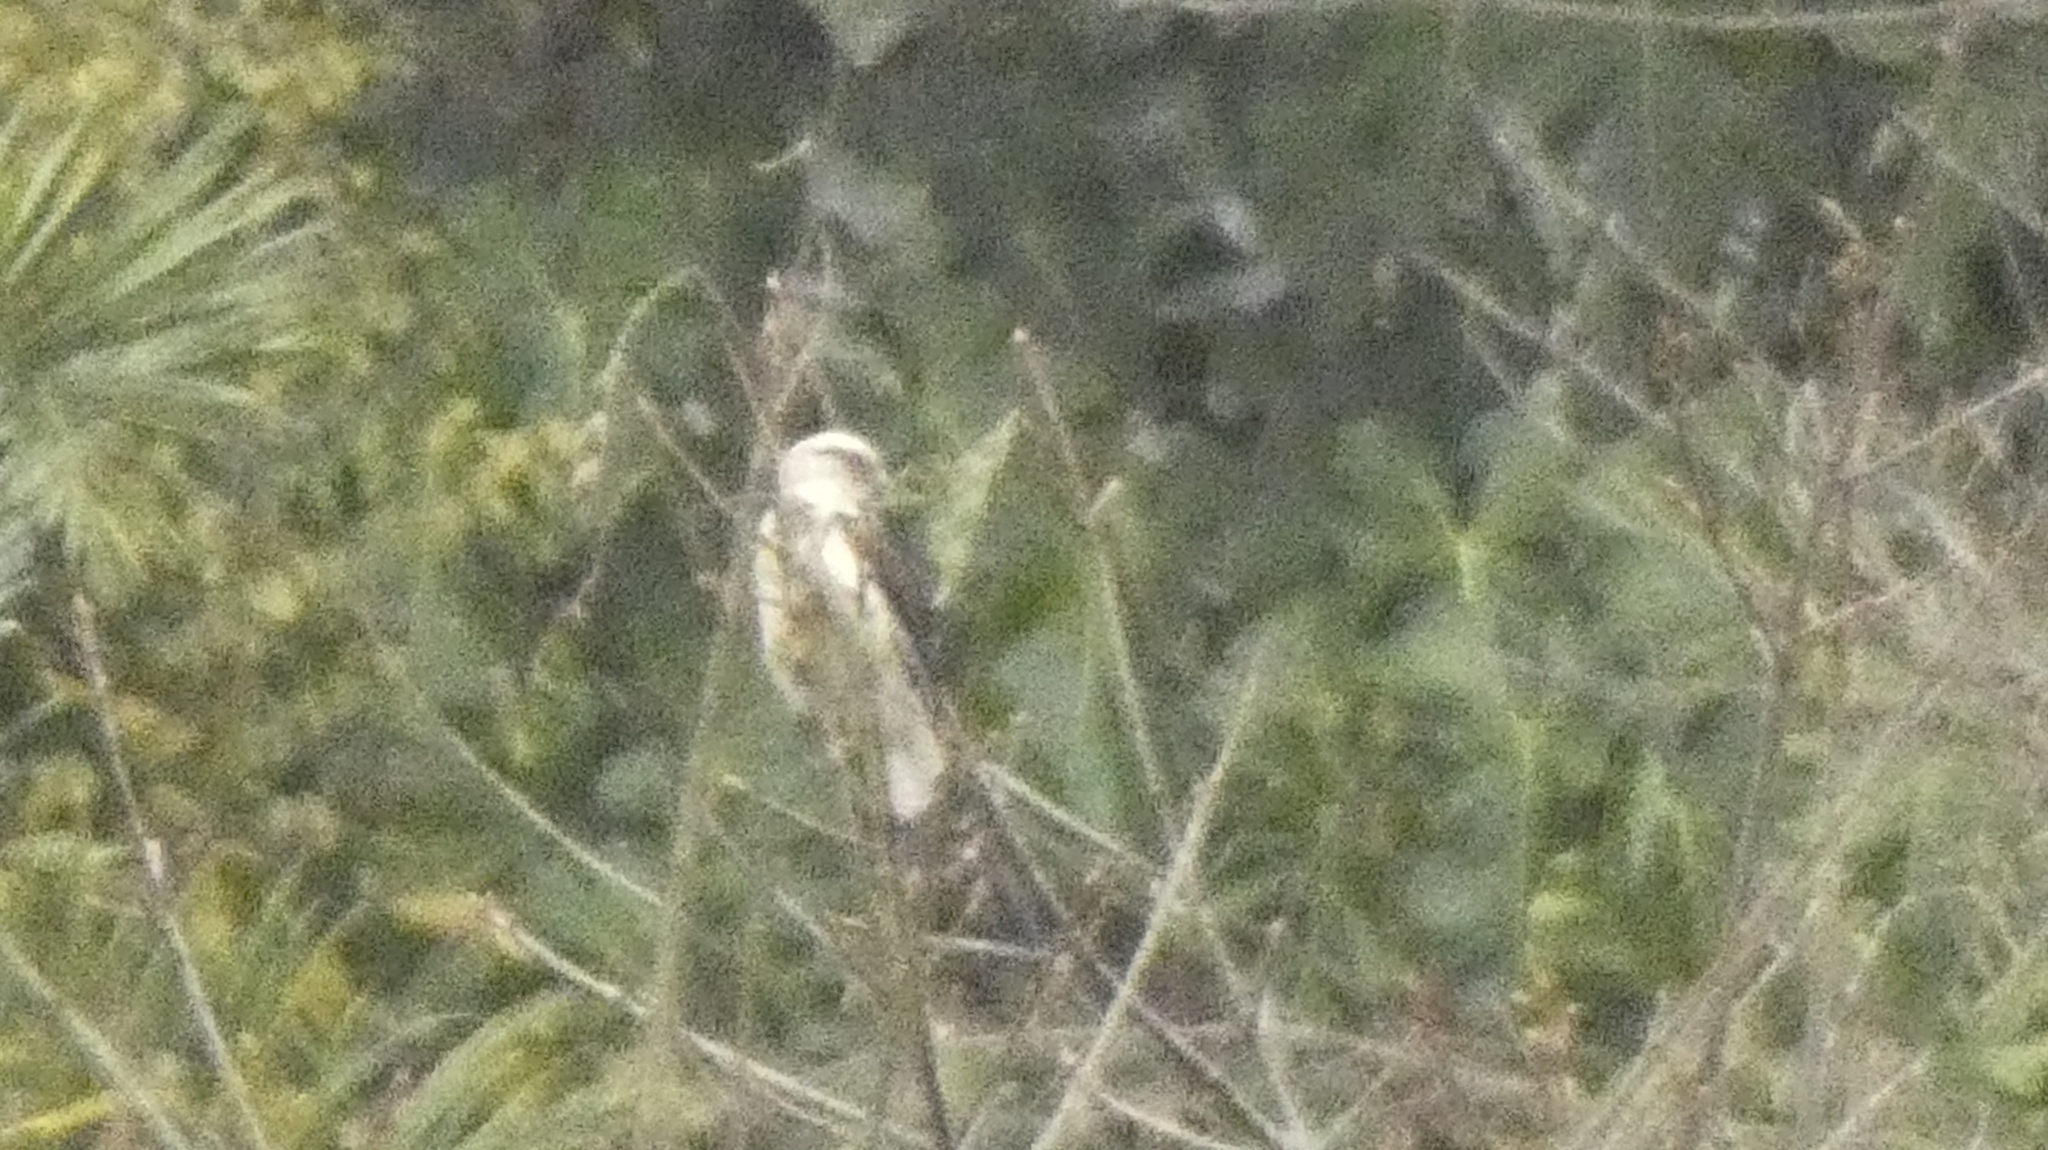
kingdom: Animalia
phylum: Chordata
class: Aves
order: Falconiformes
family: Falconidae
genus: Daptrius
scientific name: Daptrius
